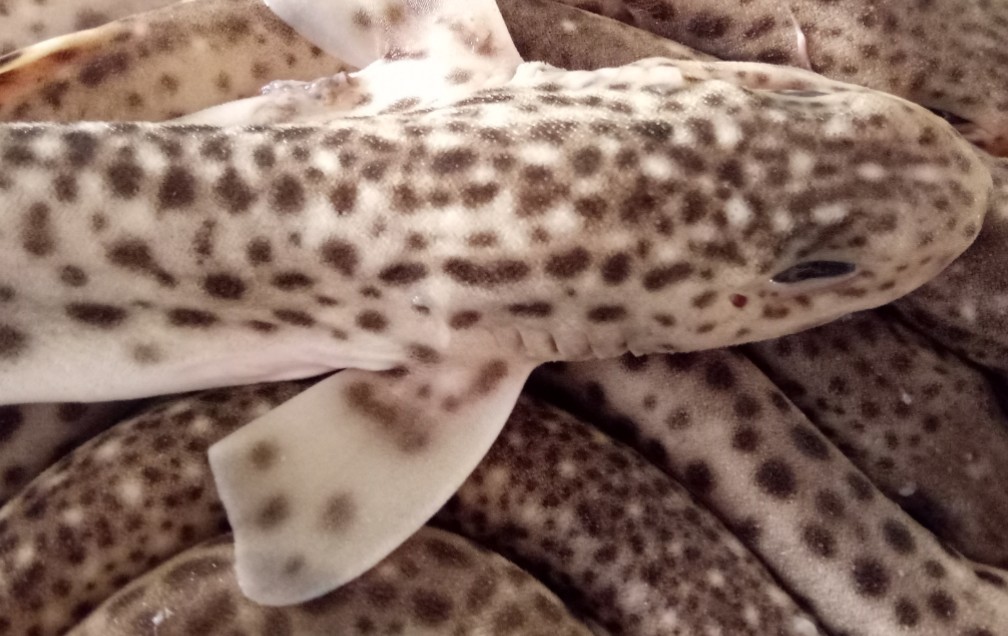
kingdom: Animalia
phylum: Chordata
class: Elasmobranchii
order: Carcharhiniformes
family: Scyliorhinidae
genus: Scyliorhinus
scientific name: Scyliorhinus canicula
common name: Lesser spotted dogfish
